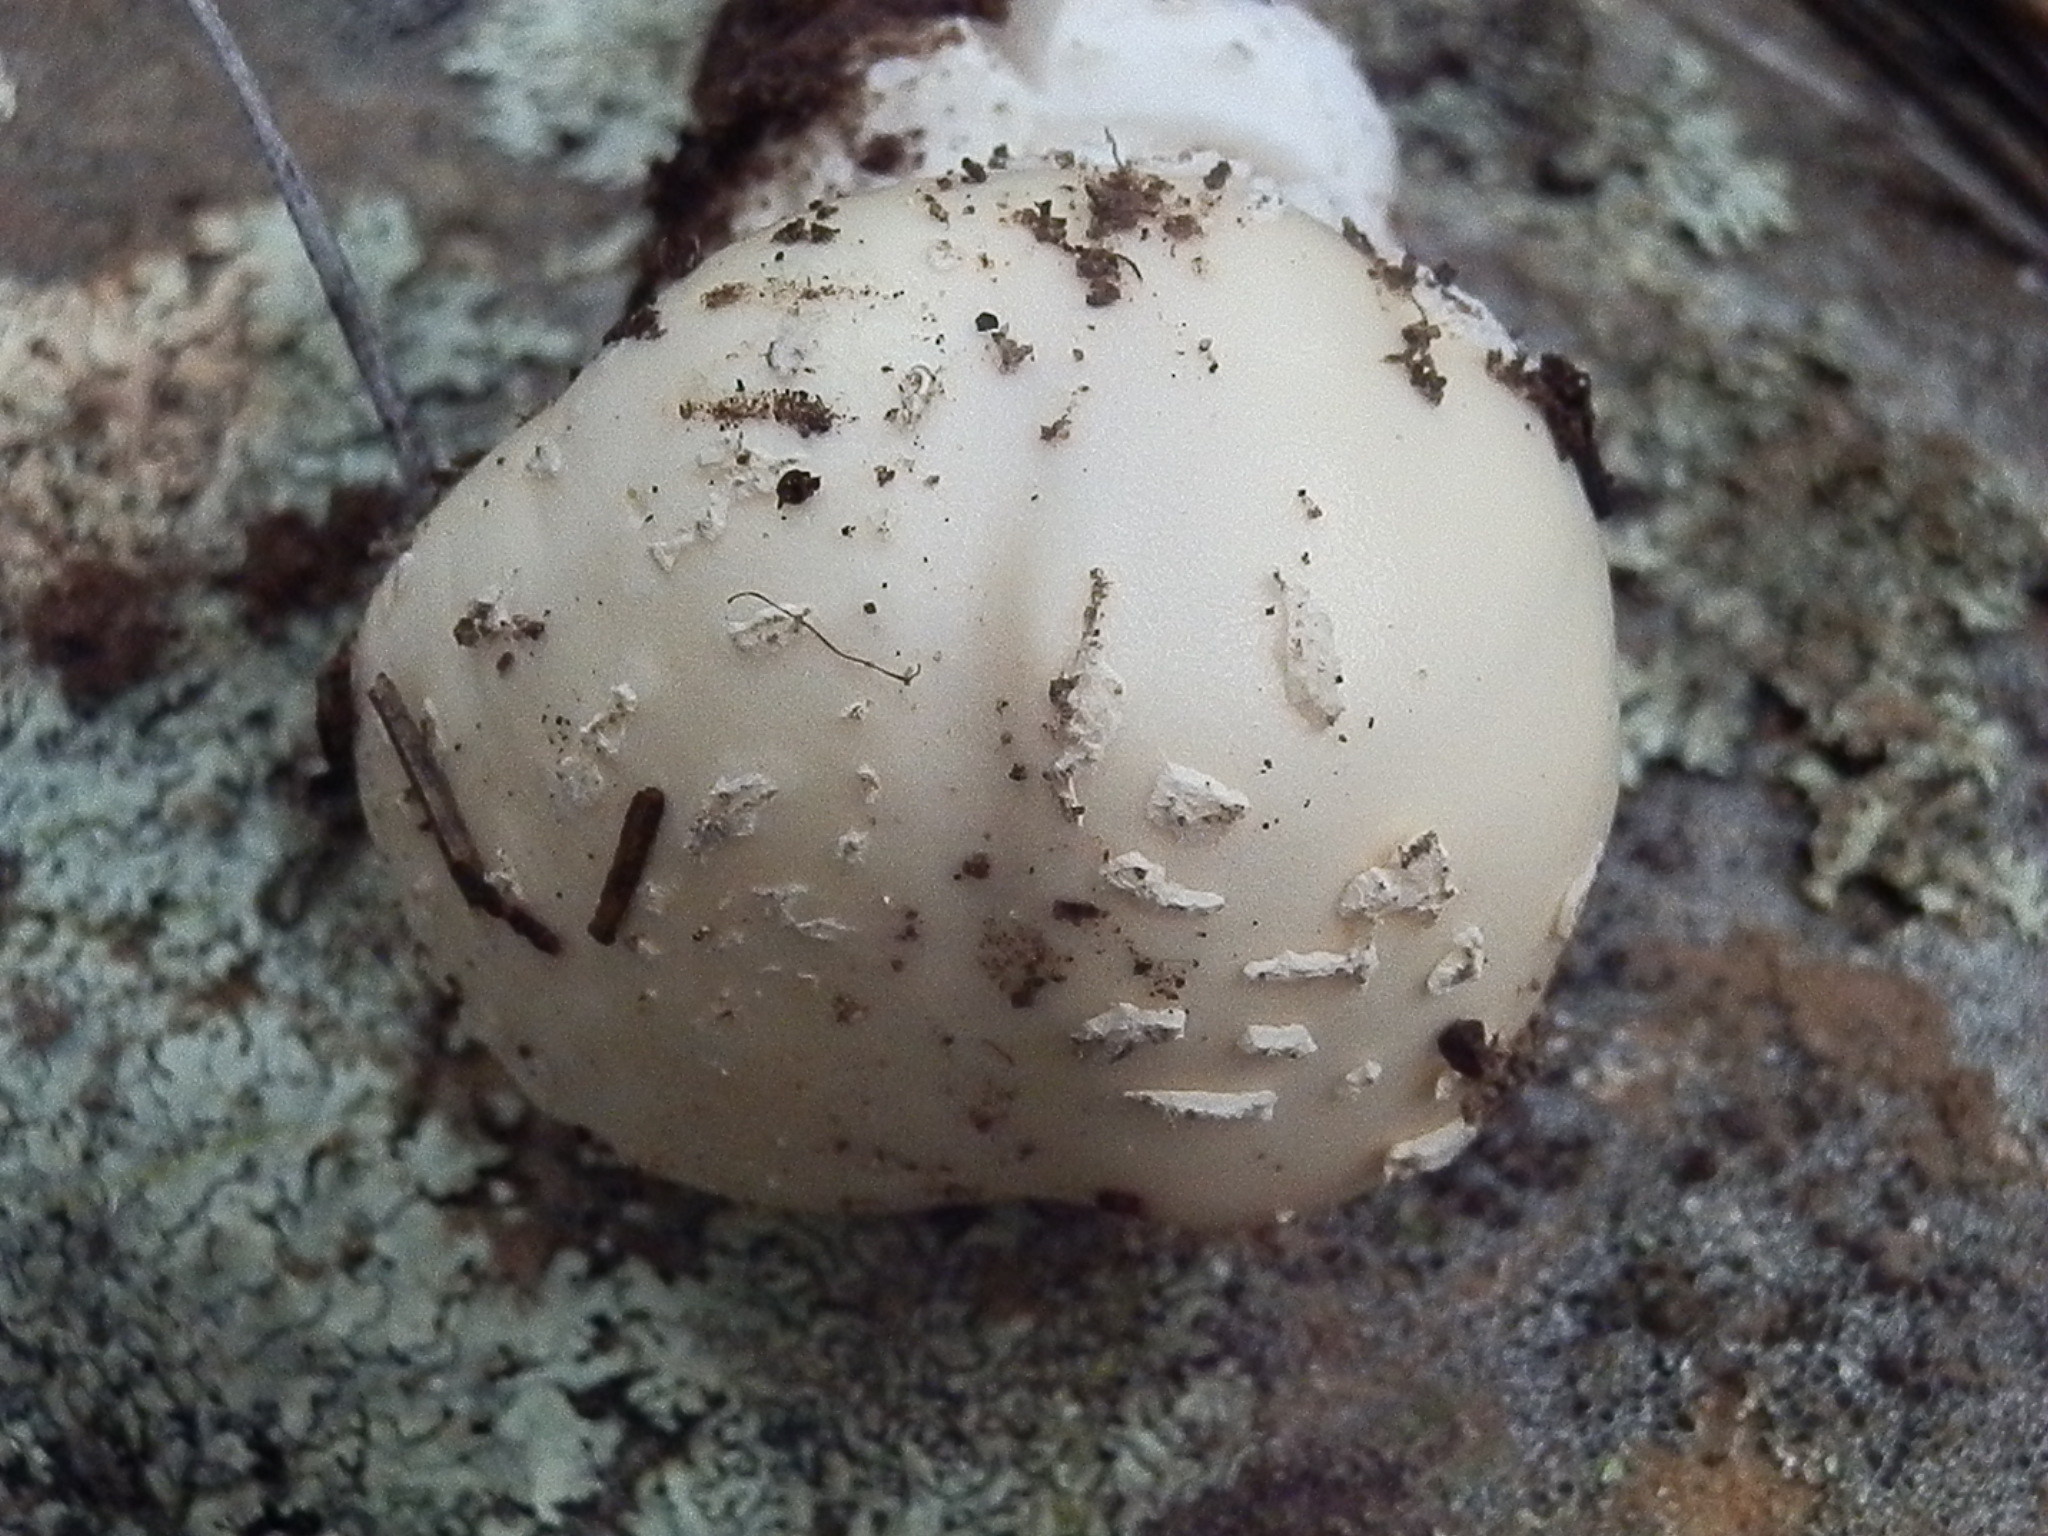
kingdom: Fungi
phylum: Basidiomycota
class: Agaricomycetes
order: Agaricales
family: Amanitaceae
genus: Amanita
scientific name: Amanita gemmata
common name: Jewelled amanita
